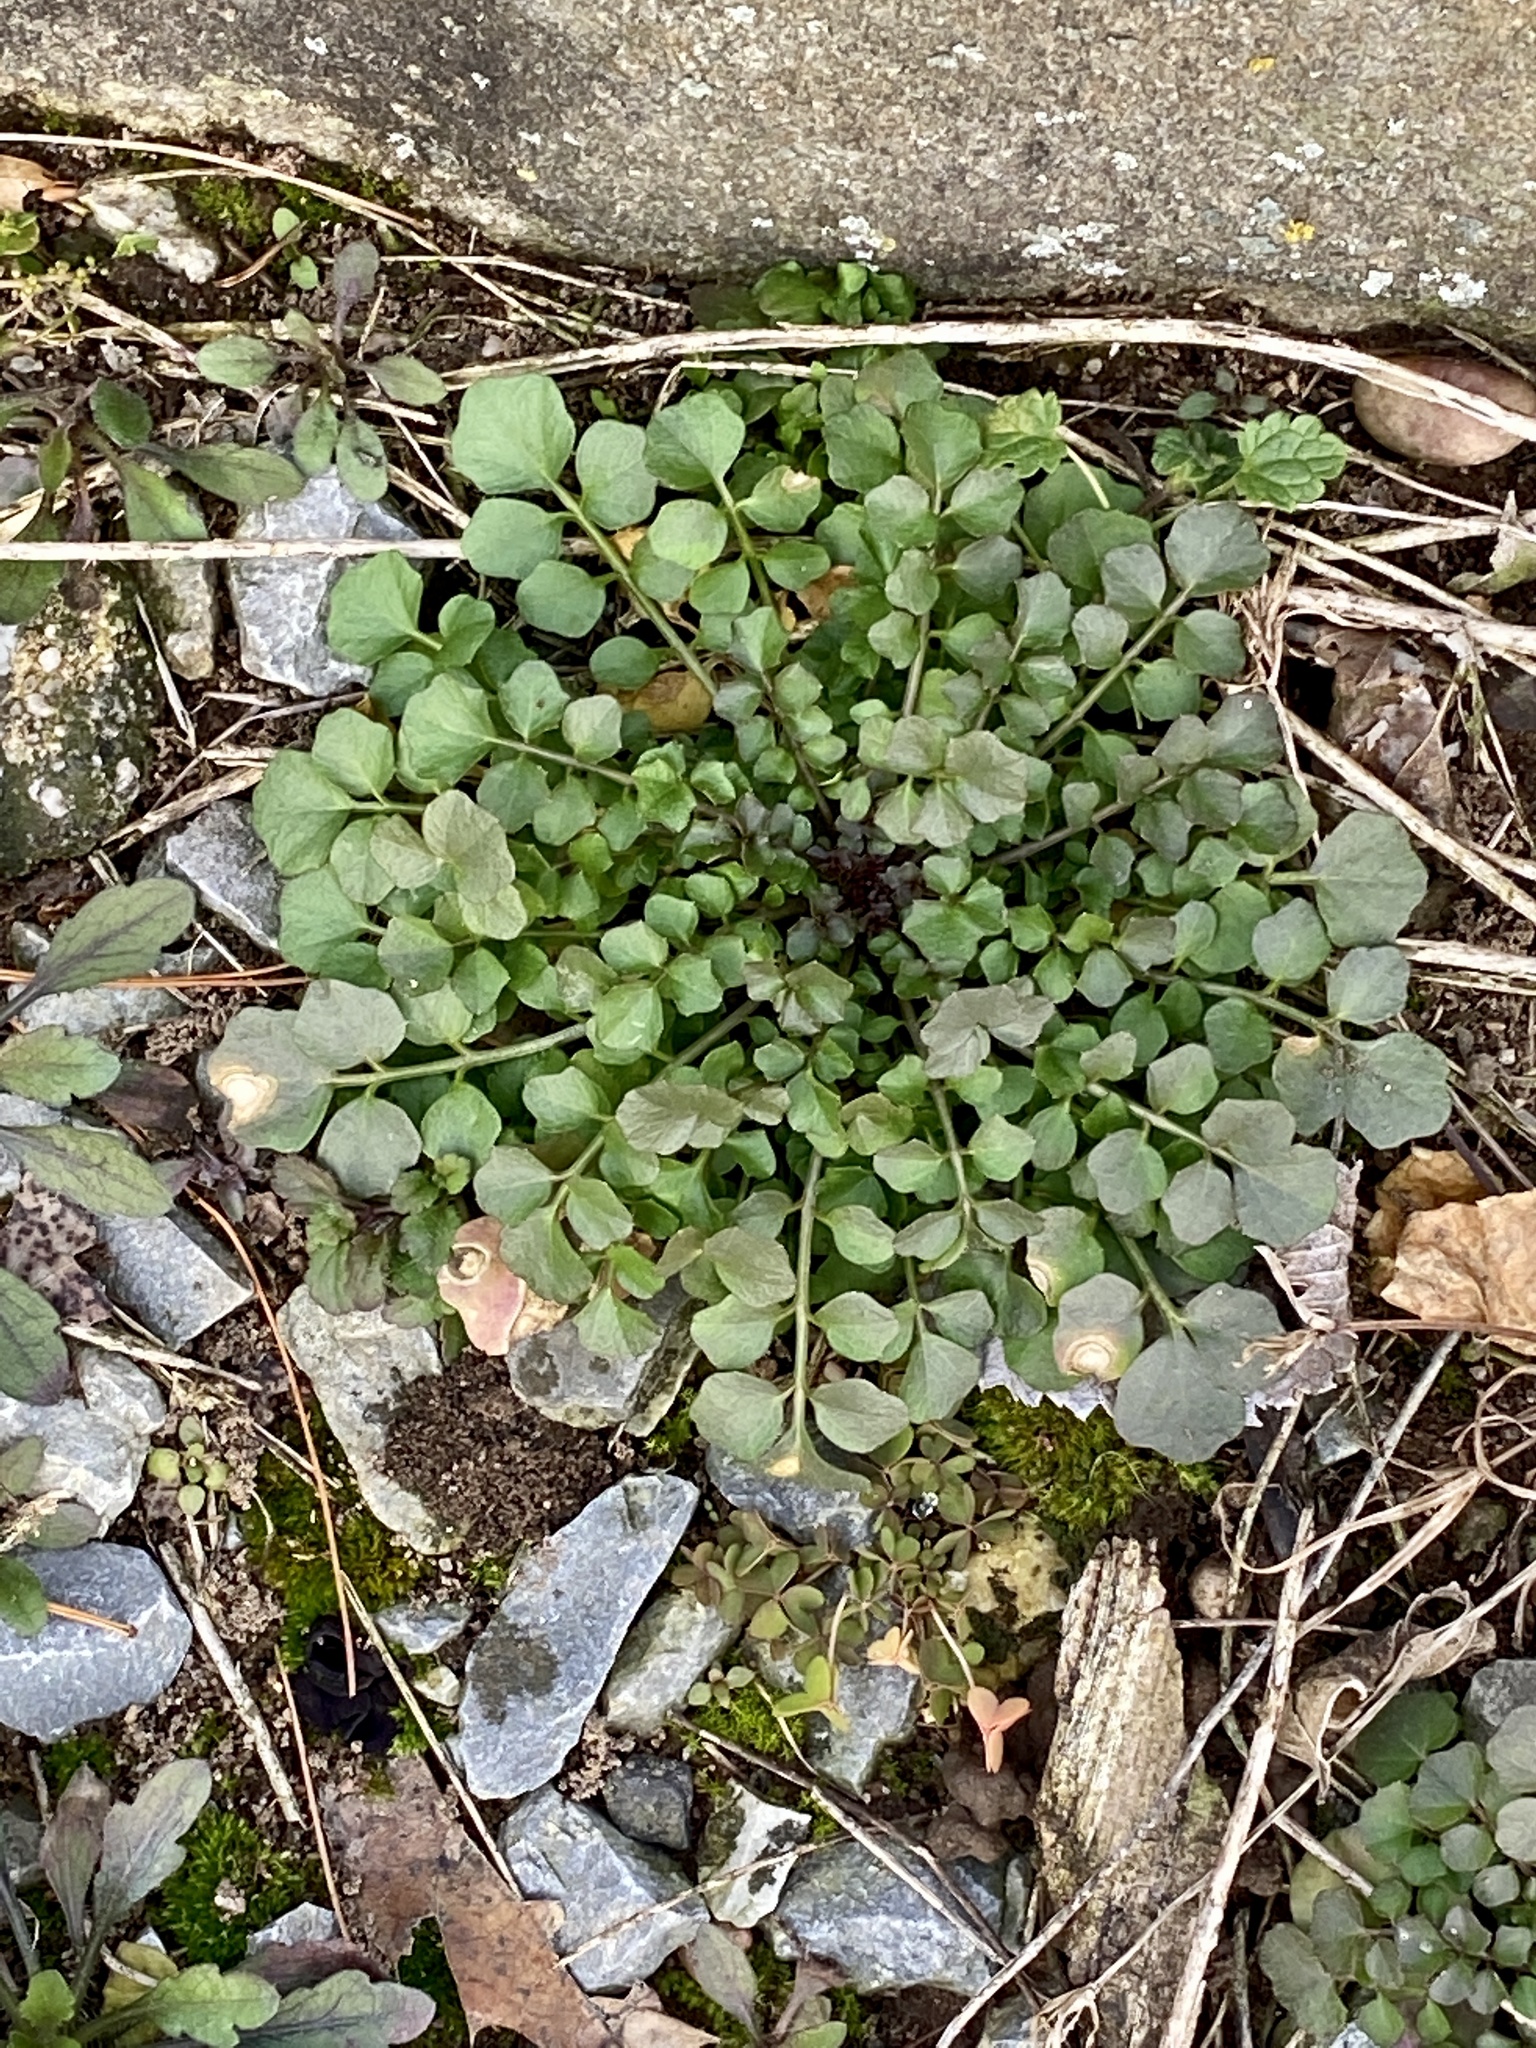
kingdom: Plantae
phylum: Tracheophyta
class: Magnoliopsida
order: Brassicales
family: Brassicaceae
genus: Cardamine
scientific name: Cardamine hirsuta
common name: Hairy bittercress
